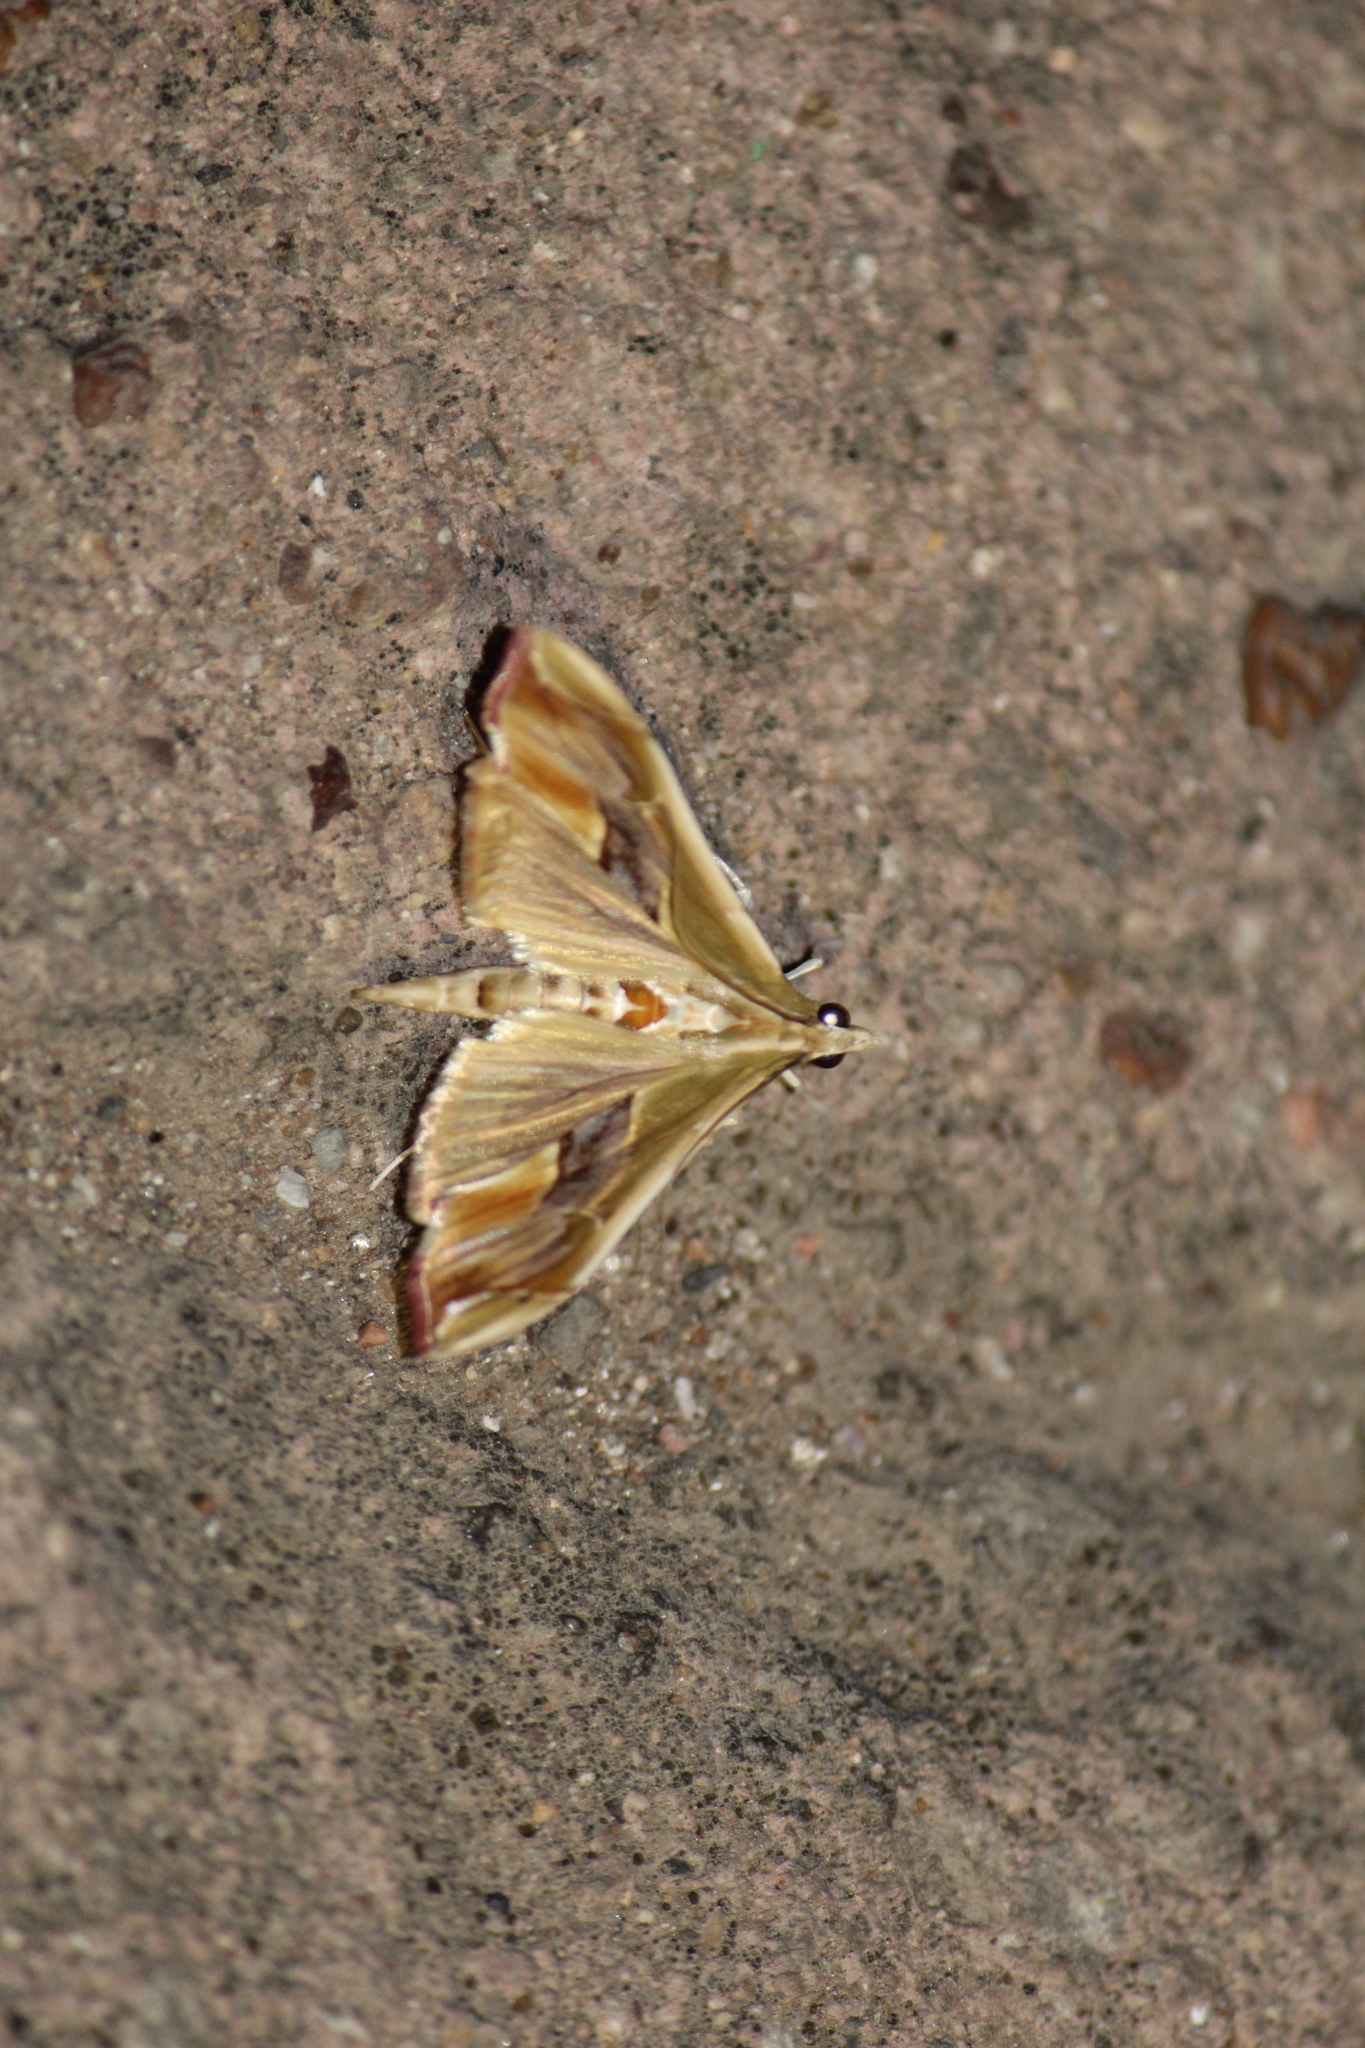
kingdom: Animalia
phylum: Arthropoda
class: Insecta
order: Lepidoptera
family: Crambidae
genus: Agathodes
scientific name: Agathodes monstralis
